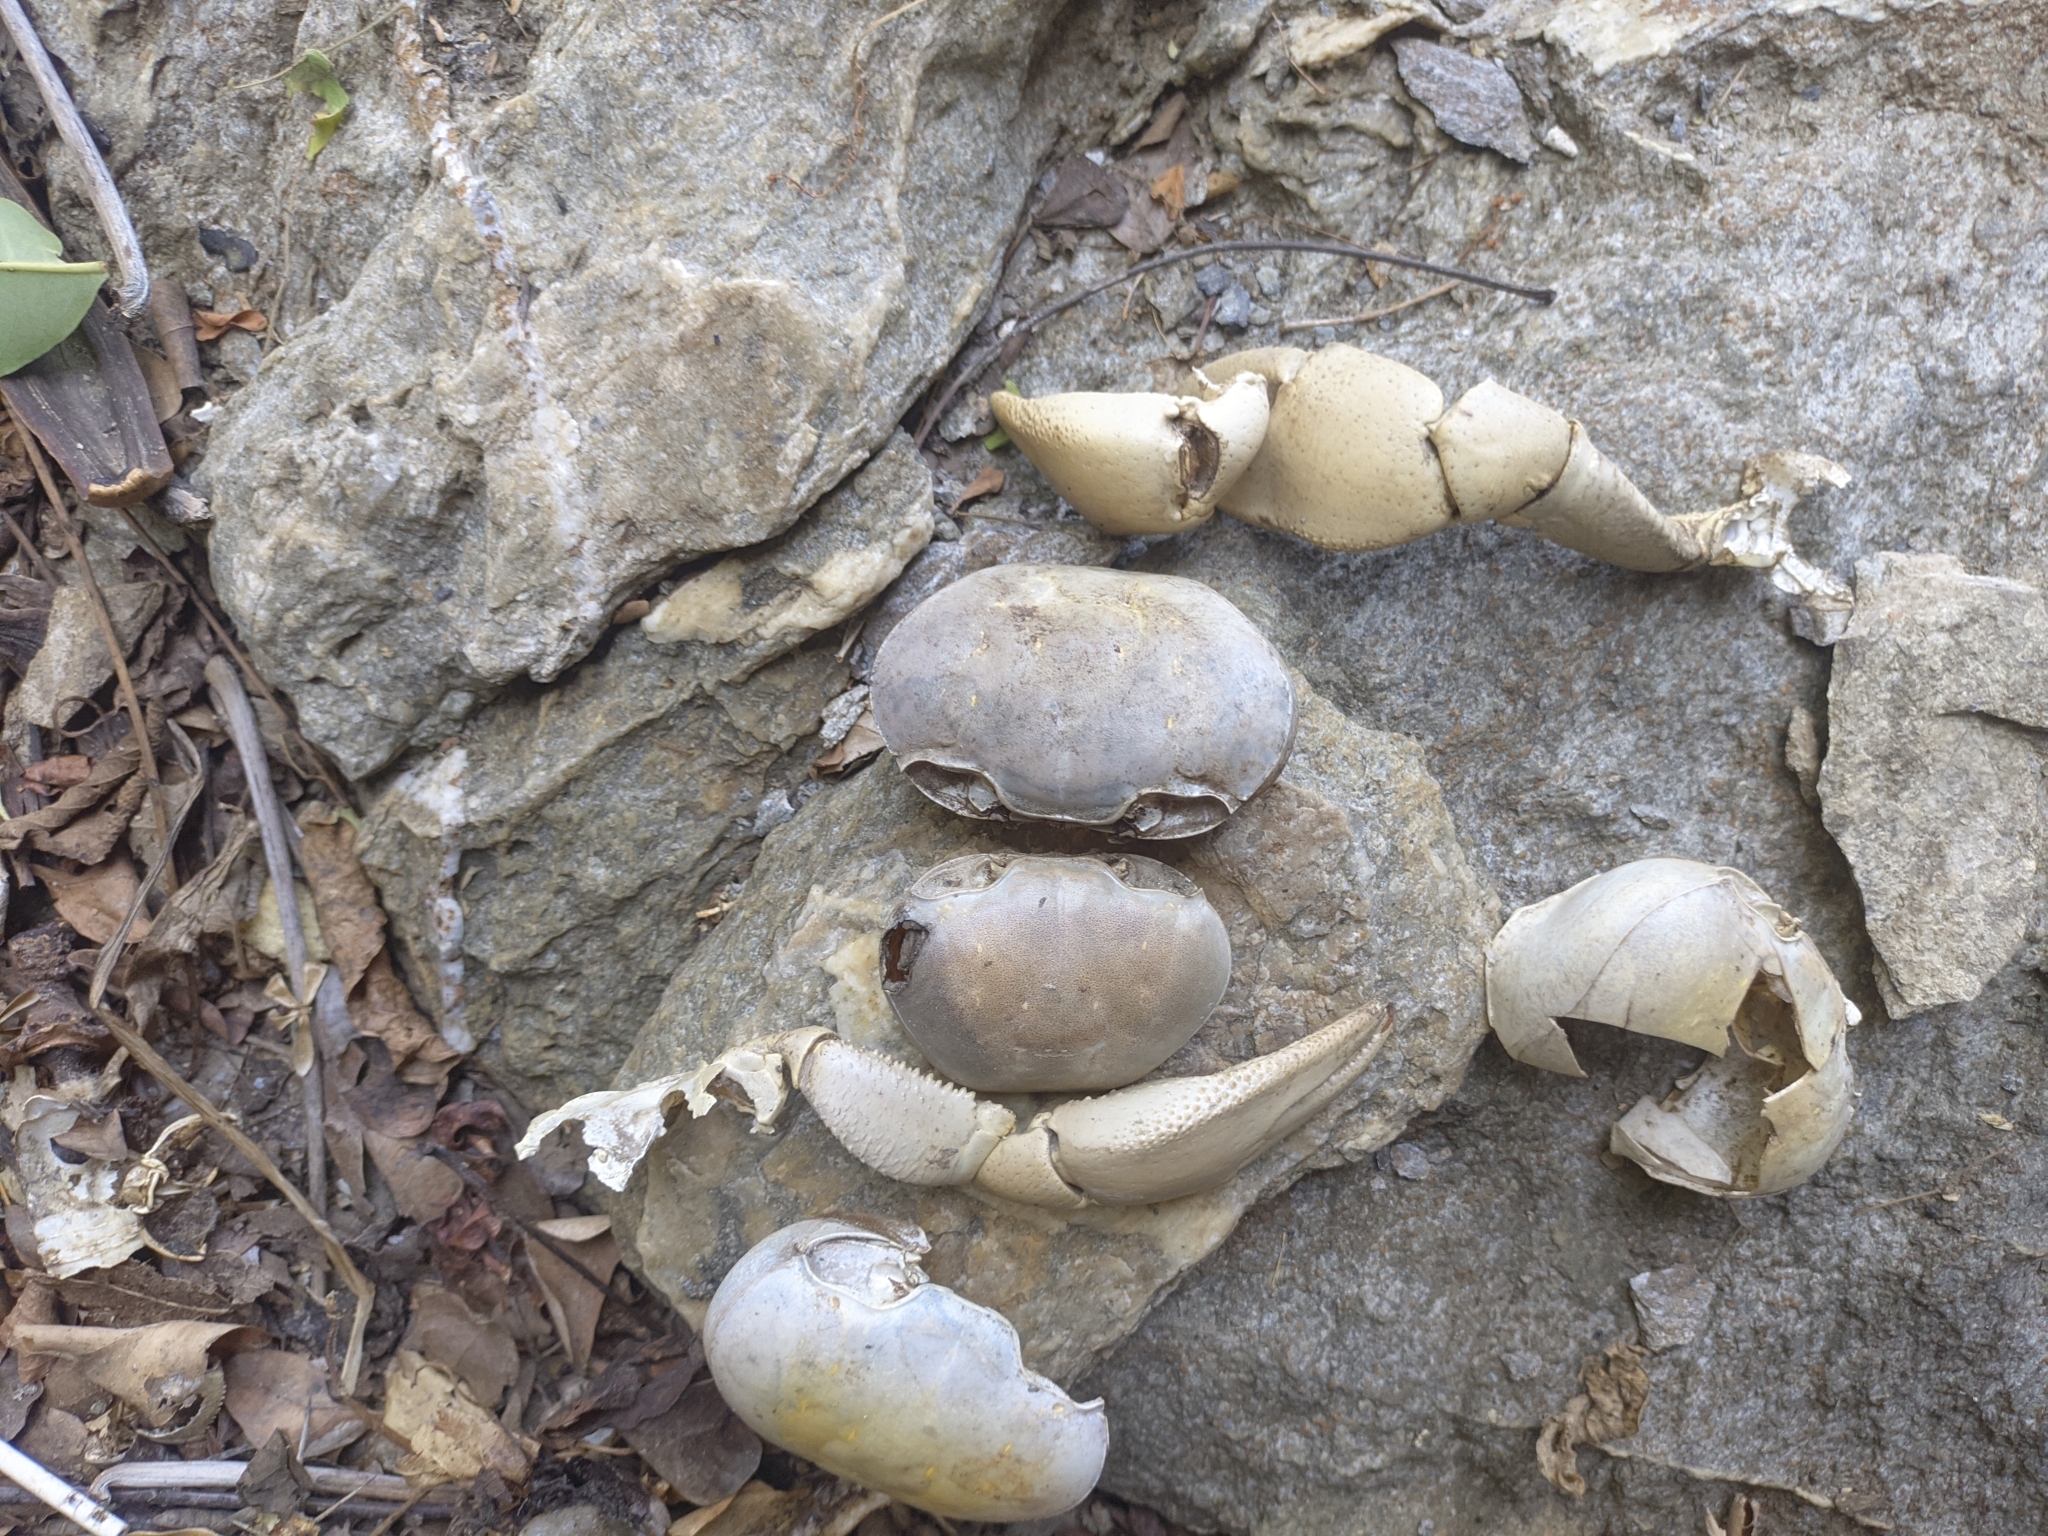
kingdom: Animalia
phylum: Arthropoda
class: Malacostraca
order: Decapoda
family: Gecarcinidae
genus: Cardisoma
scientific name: Cardisoma guanhumi
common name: Great land crab
